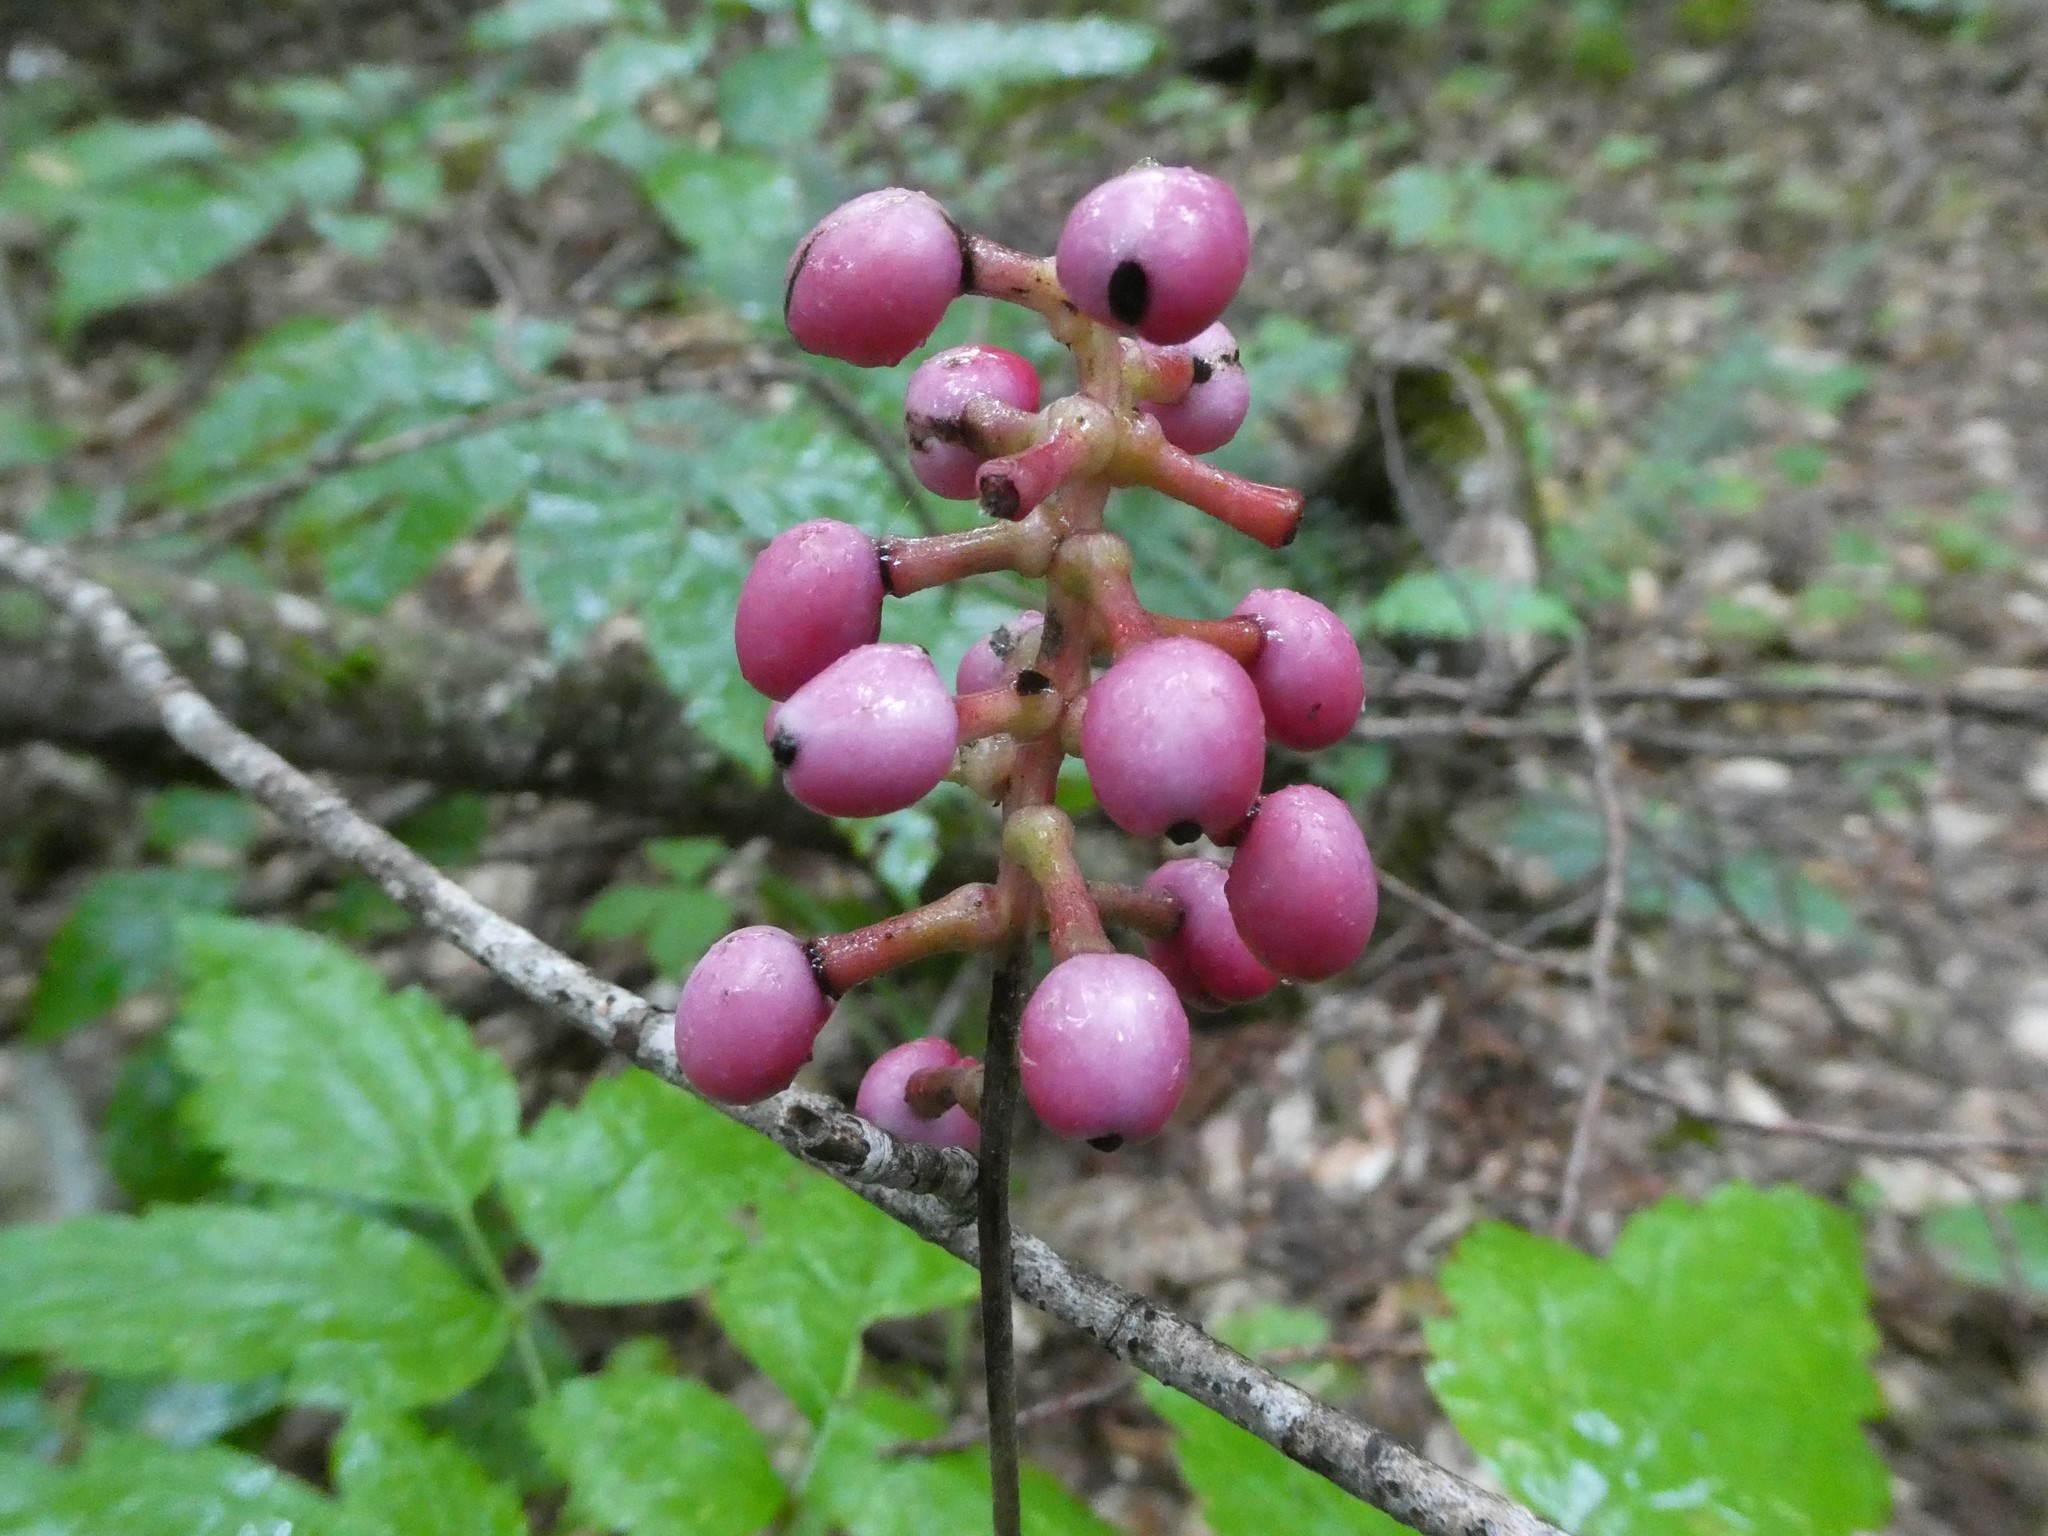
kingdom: Plantae
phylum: Tracheophyta
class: Magnoliopsida
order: Ranunculales
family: Ranunculaceae
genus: Actaea
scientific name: Actaea pachypoda
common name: Doll's-eyes
